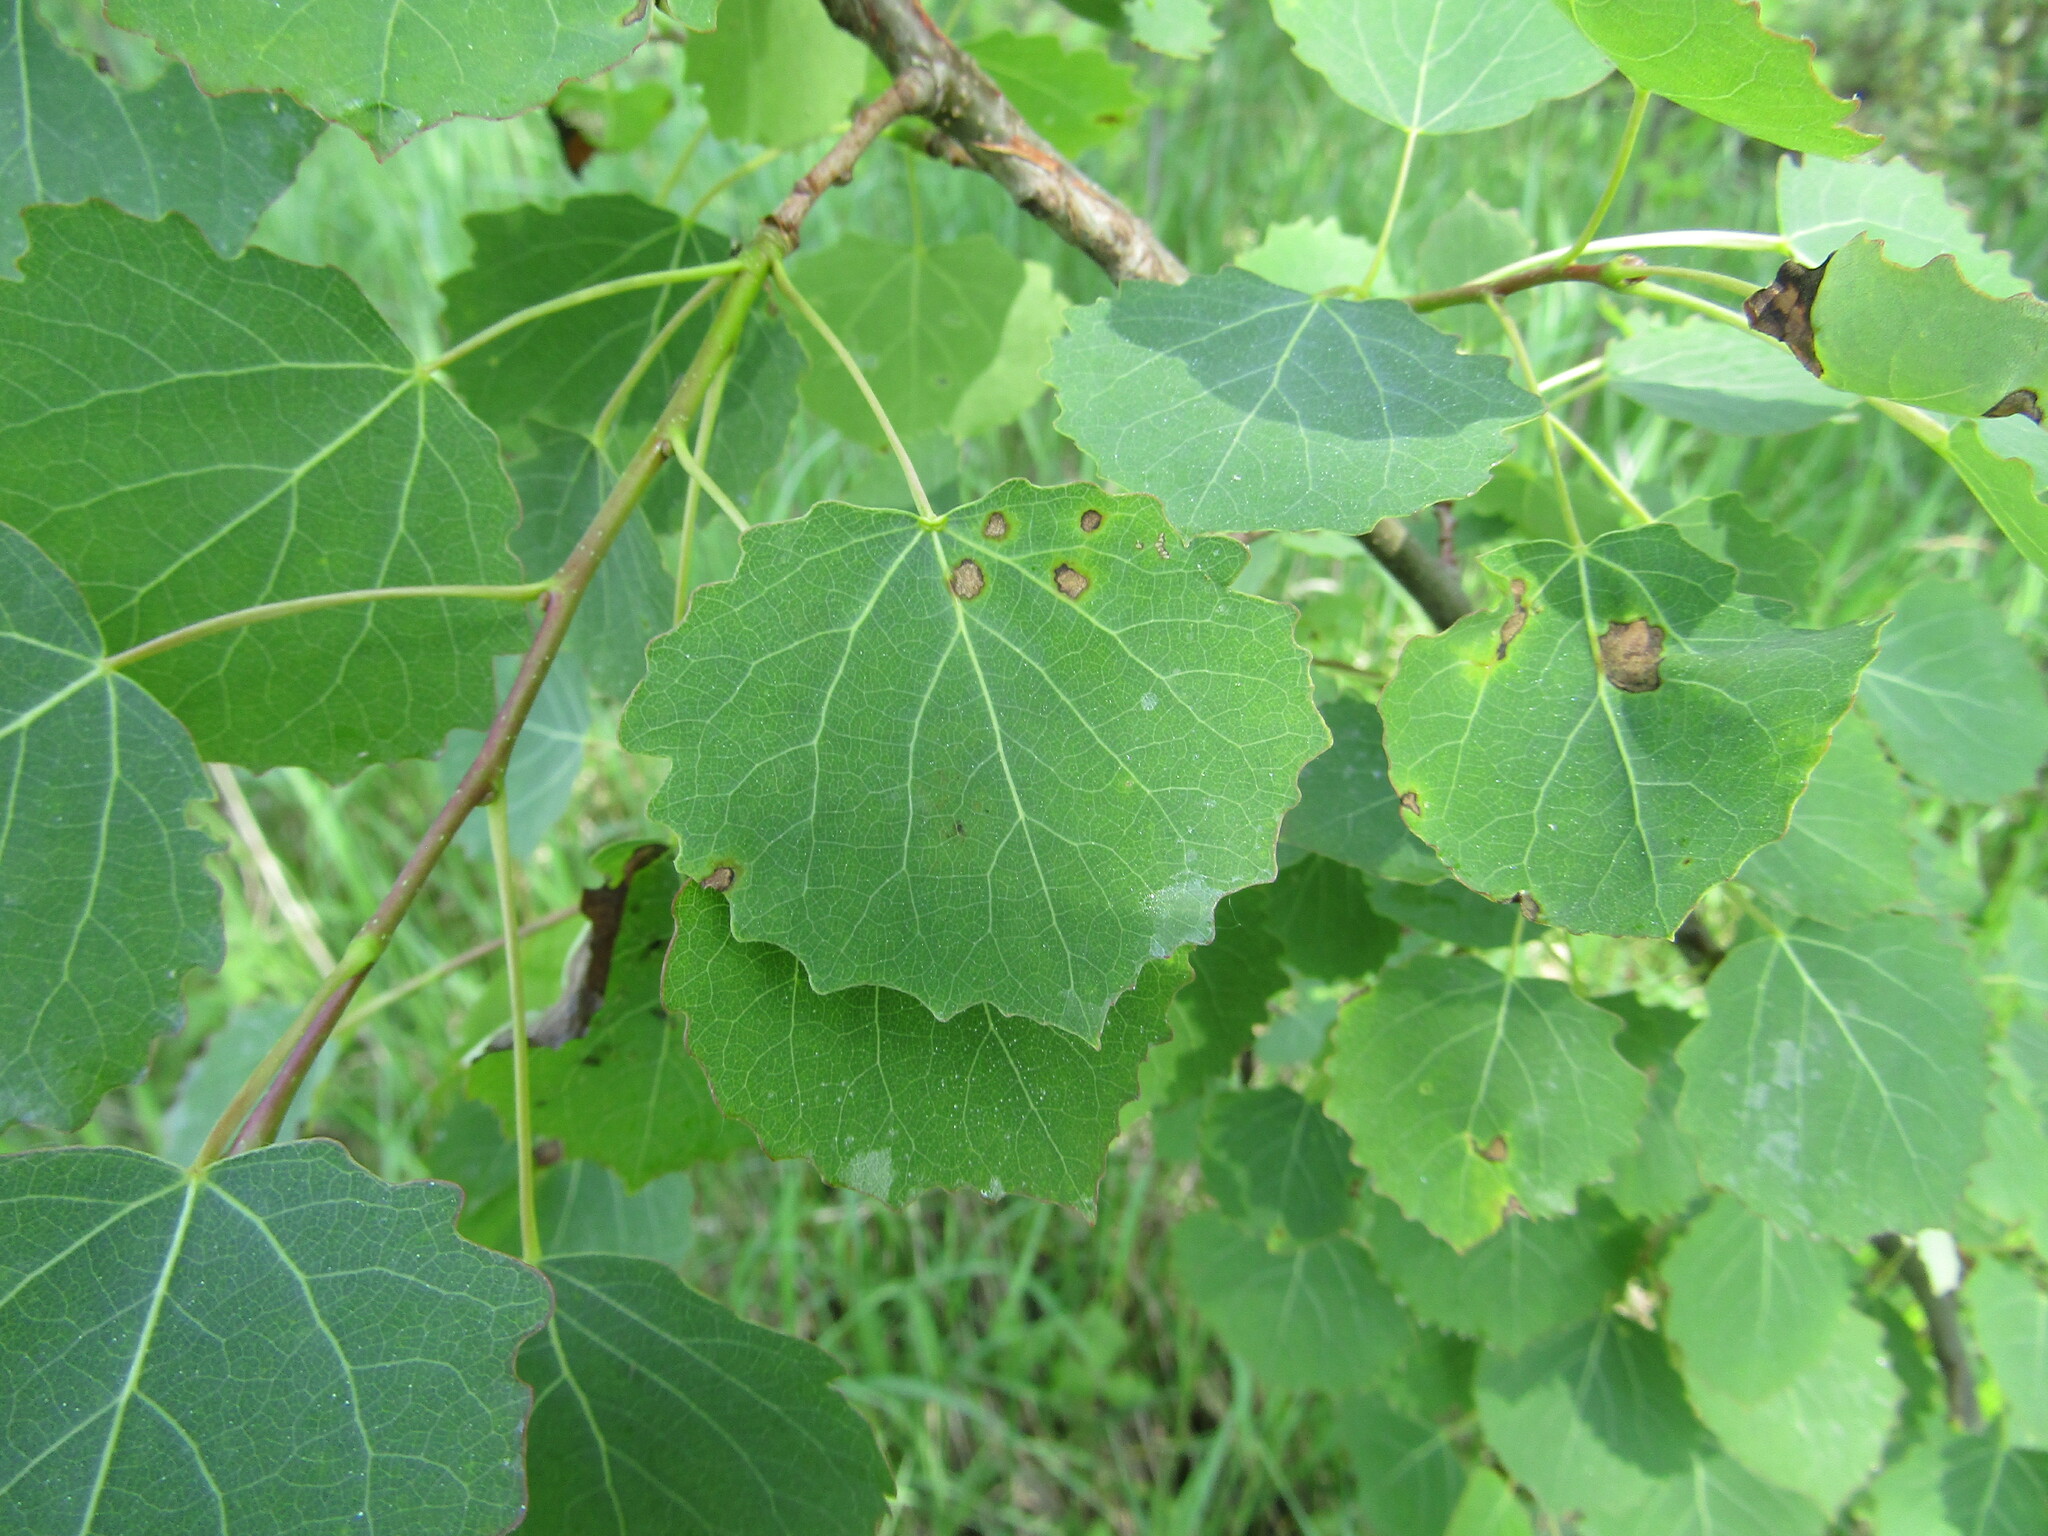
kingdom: Plantae
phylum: Tracheophyta
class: Magnoliopsida
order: Malpighiales
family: Salicaceae
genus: Populus
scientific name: Populus tremula
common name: European aspen
